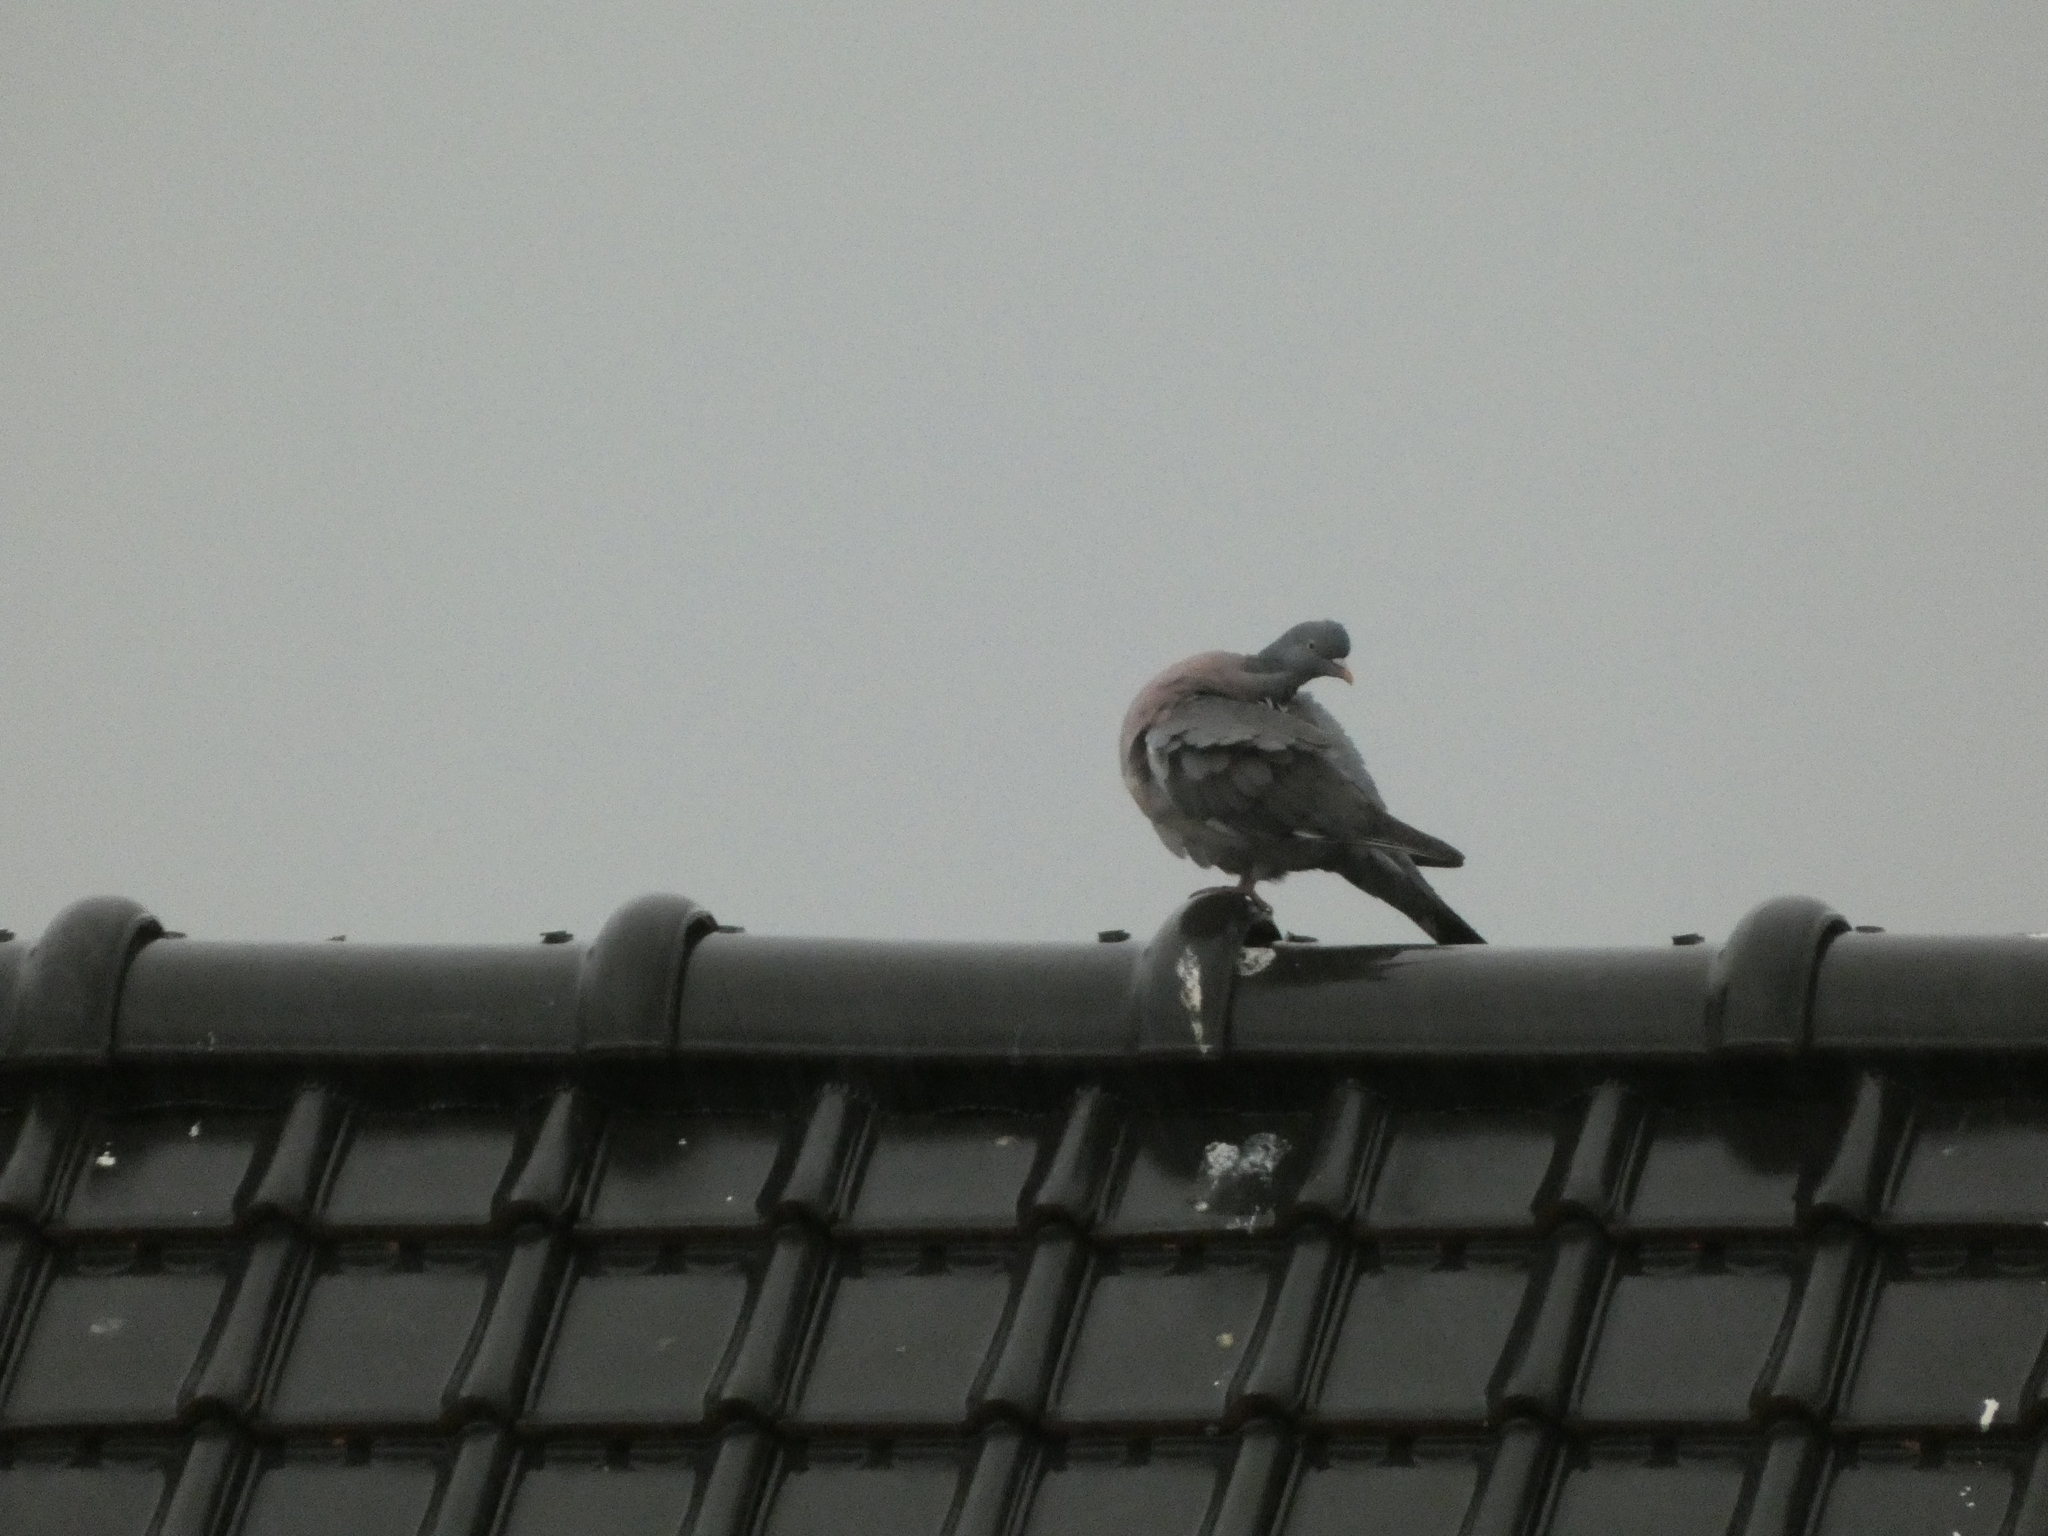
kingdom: Animalia
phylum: Chordata
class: Aves
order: Columbiformes
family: Columbidae
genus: Columba
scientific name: Columba palumbus
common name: Common wood pigeon
